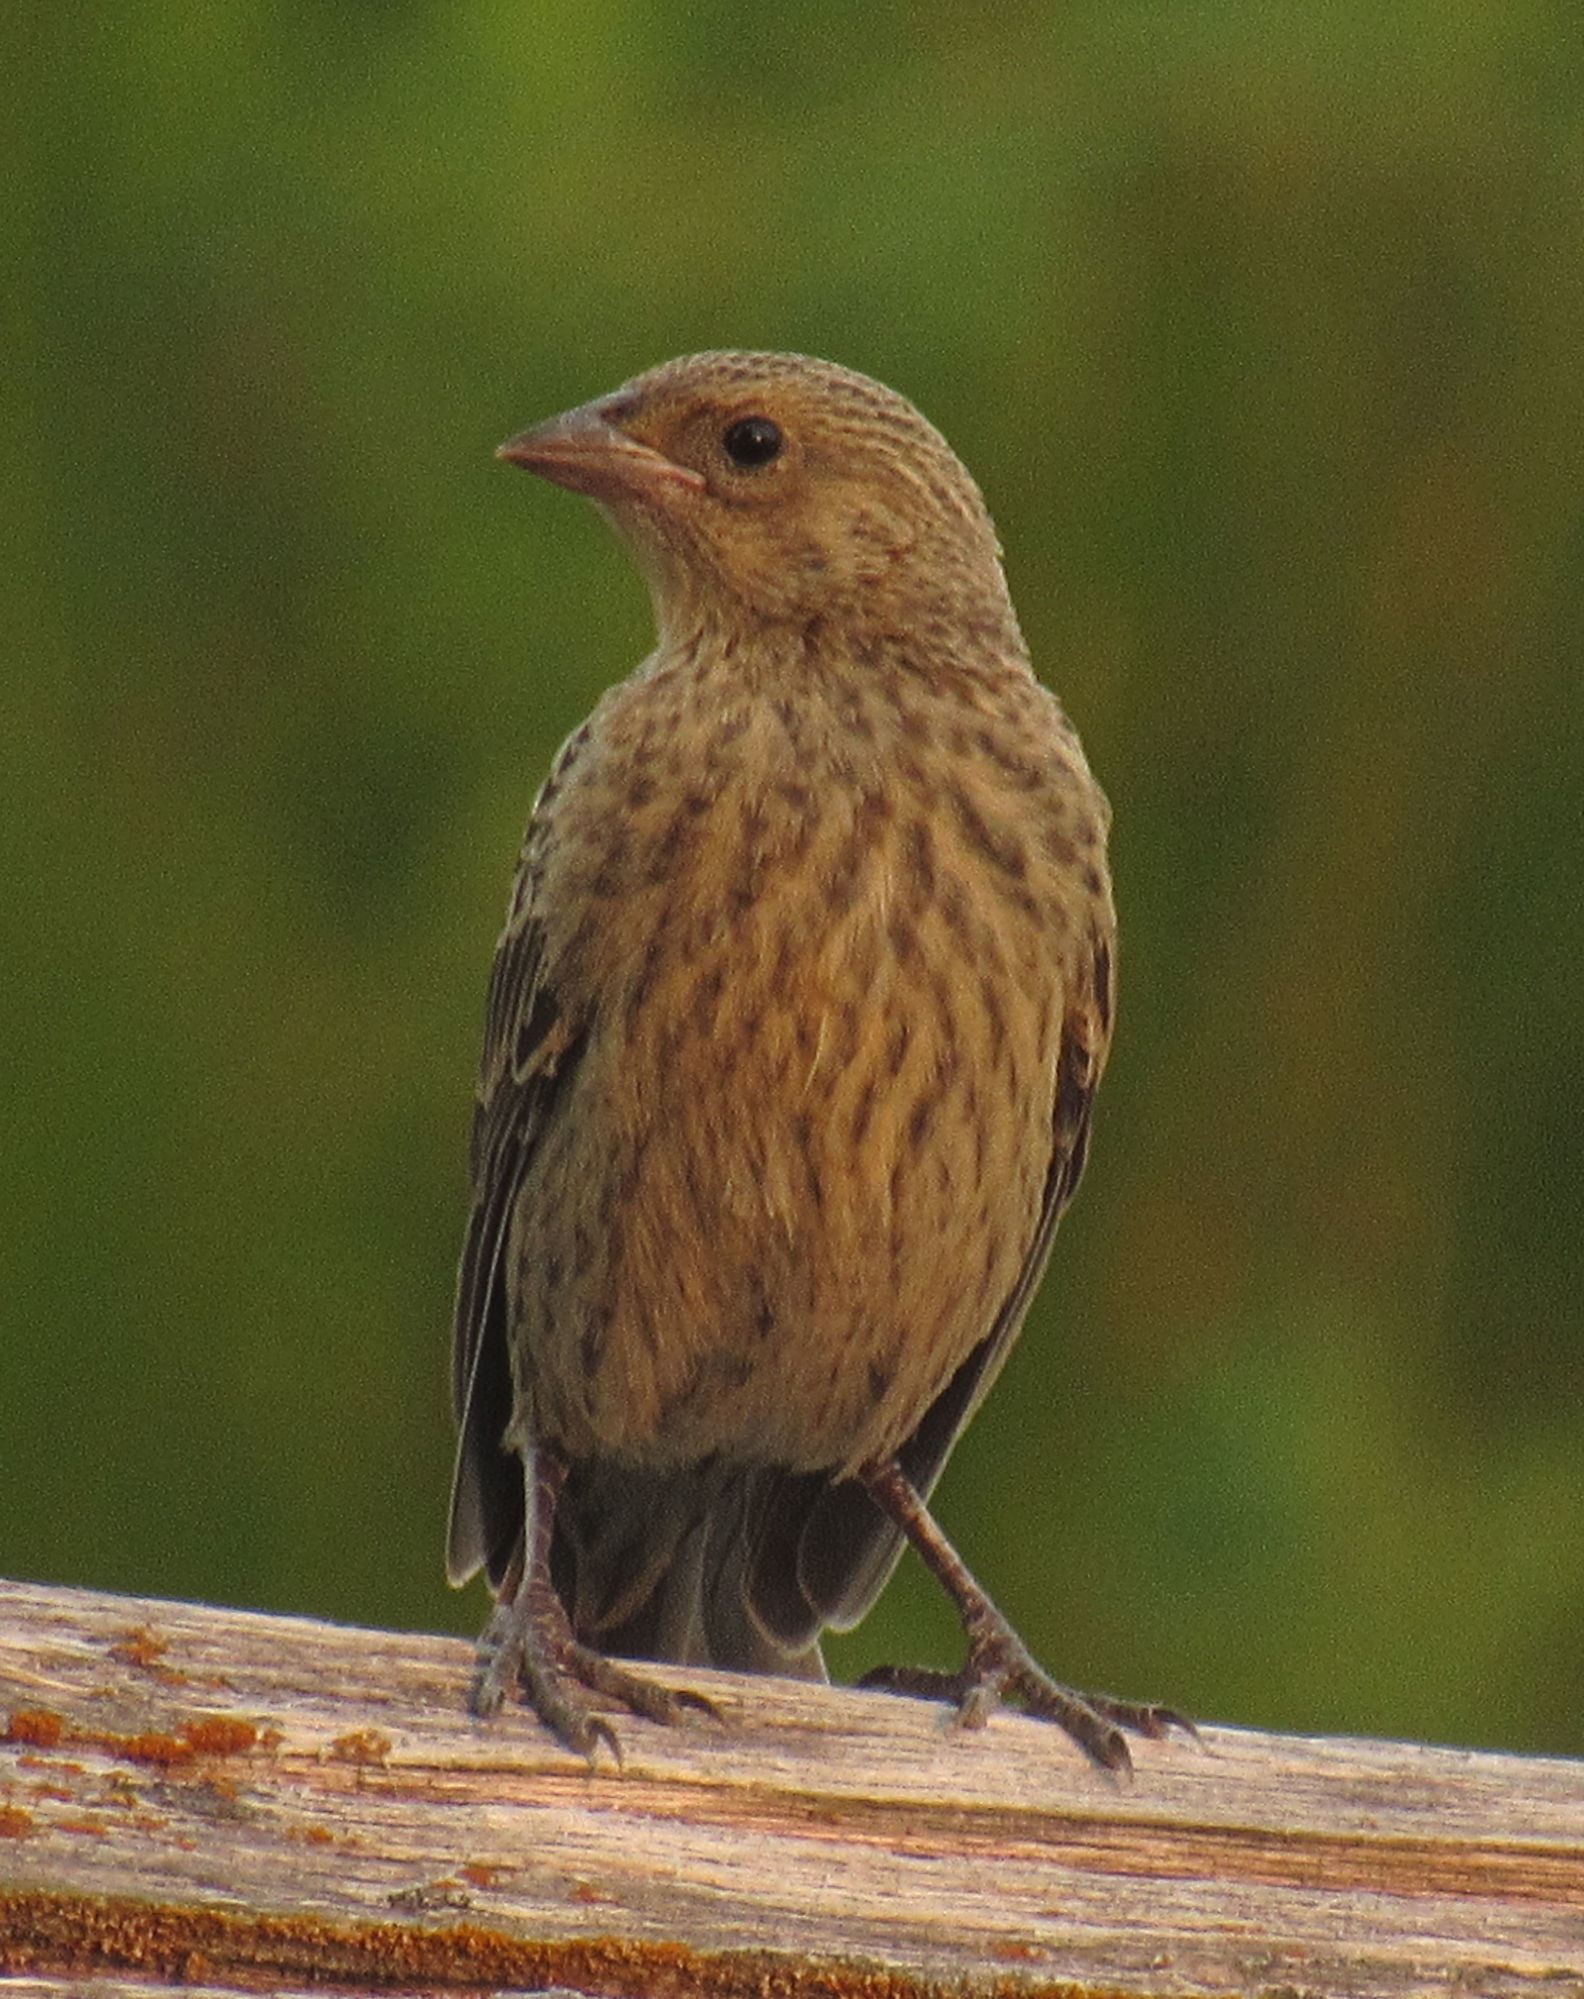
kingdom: Animalia
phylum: Chordata
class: Aves
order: Passeriformes
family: Icteridae
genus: Molothrus
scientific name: Molothrus ater
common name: Brown-headed cowbird
